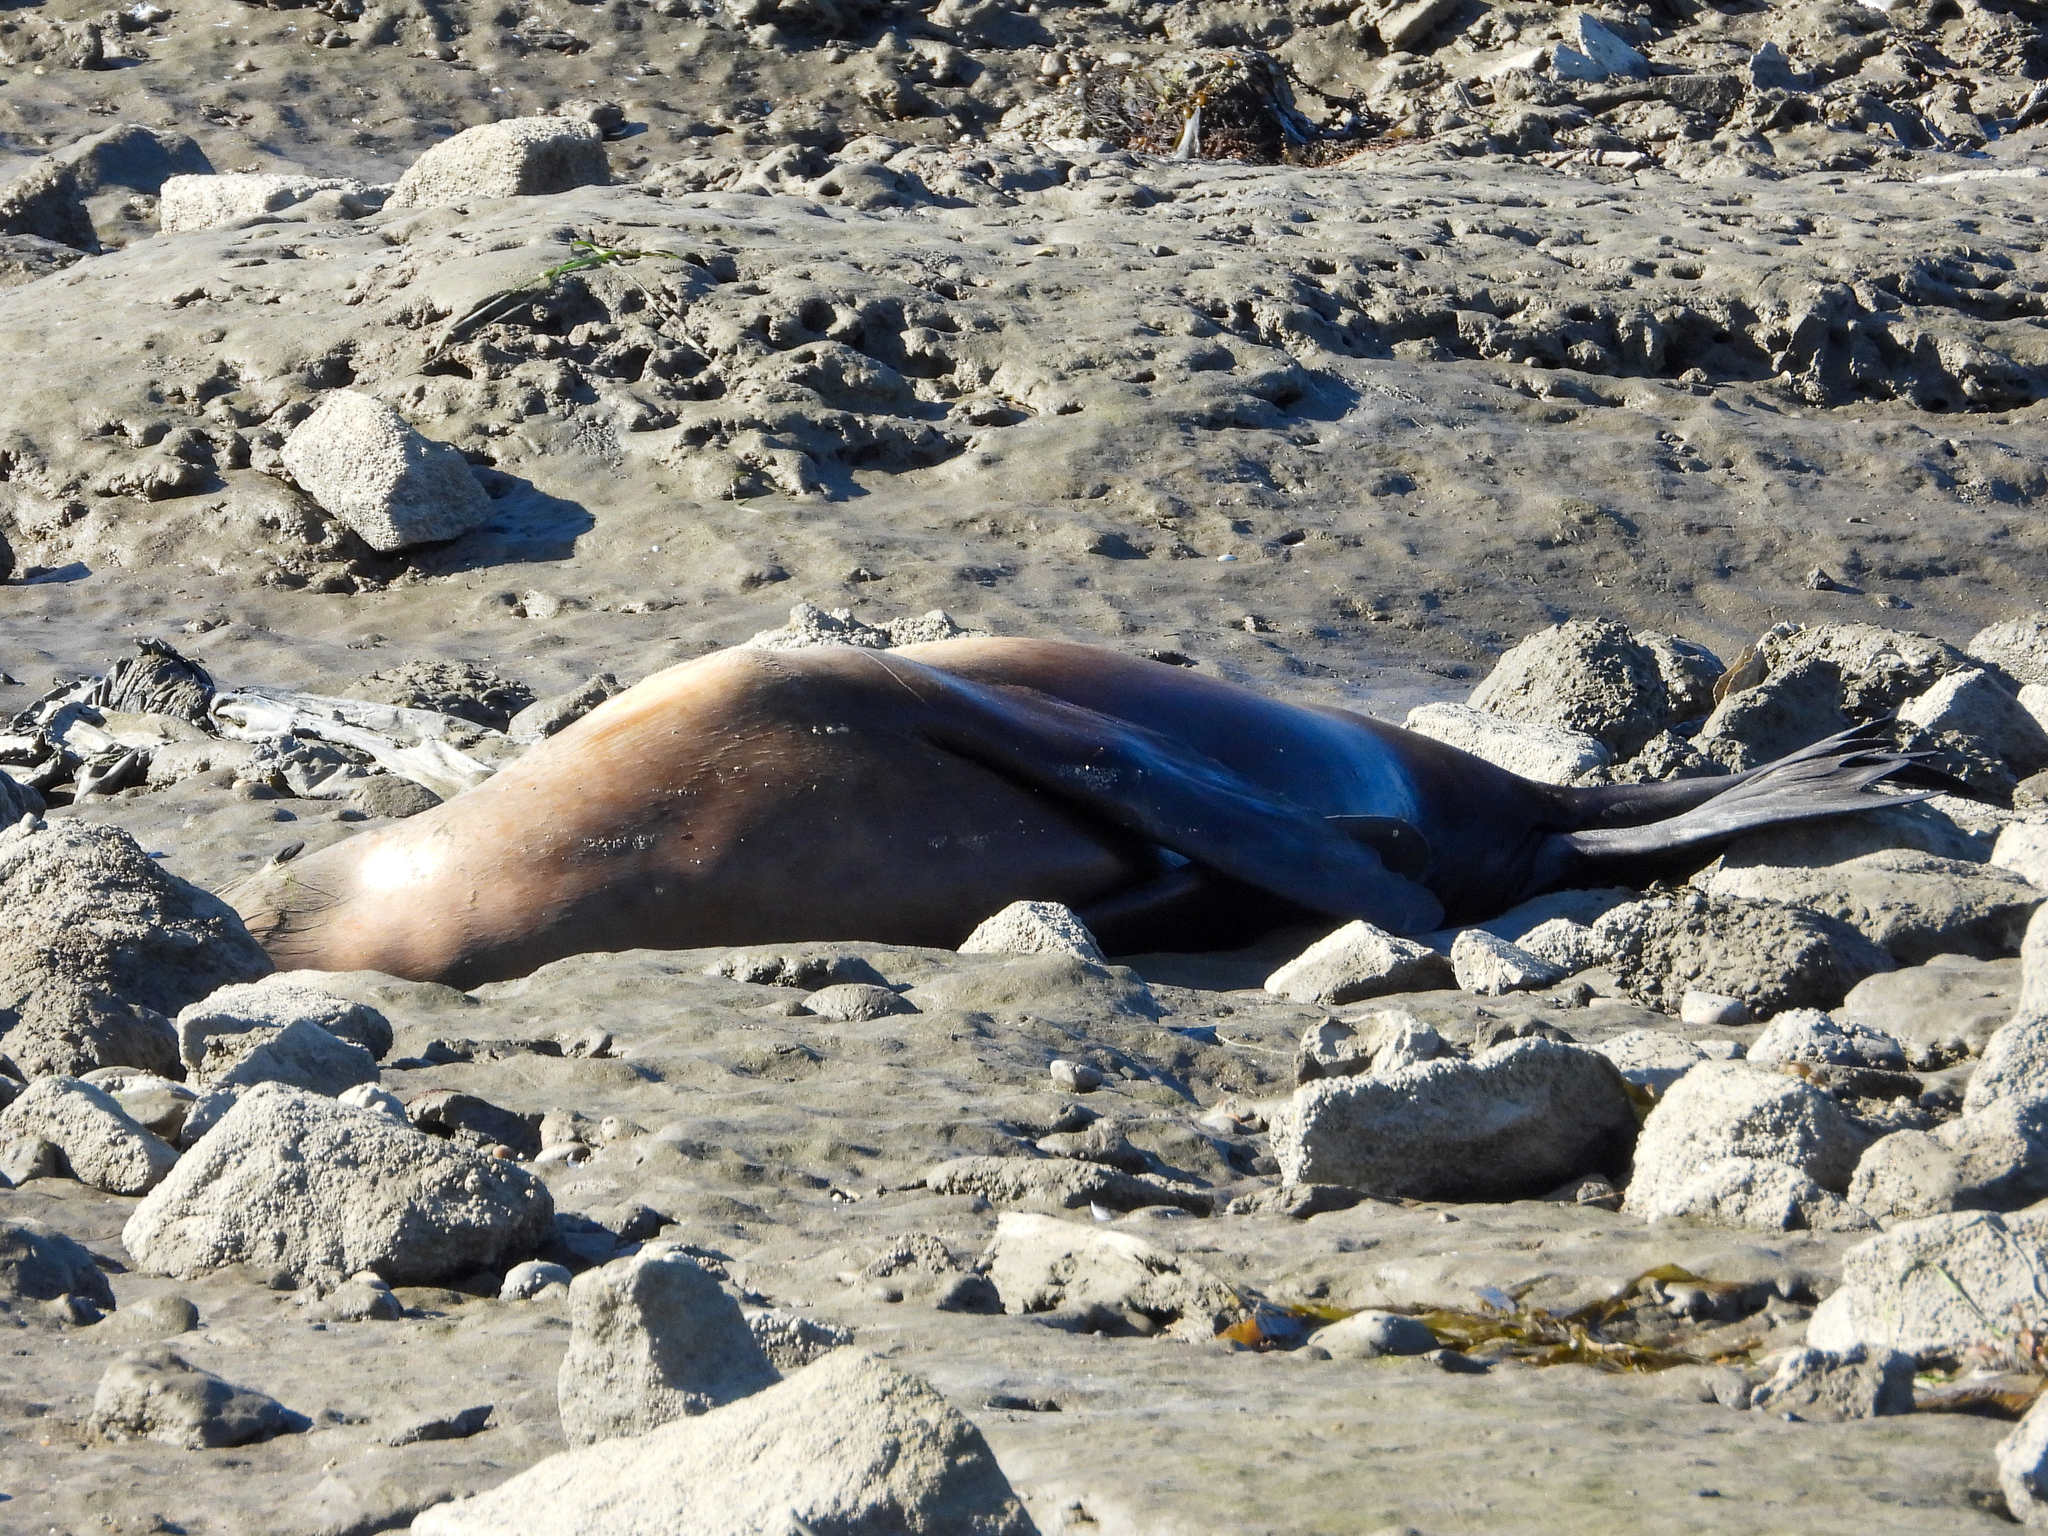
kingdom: Animalia
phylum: Chordata
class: Mammalia
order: Carnivora
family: Otariidae
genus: Zalophus
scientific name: Zalophus californianus
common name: California sea lion
